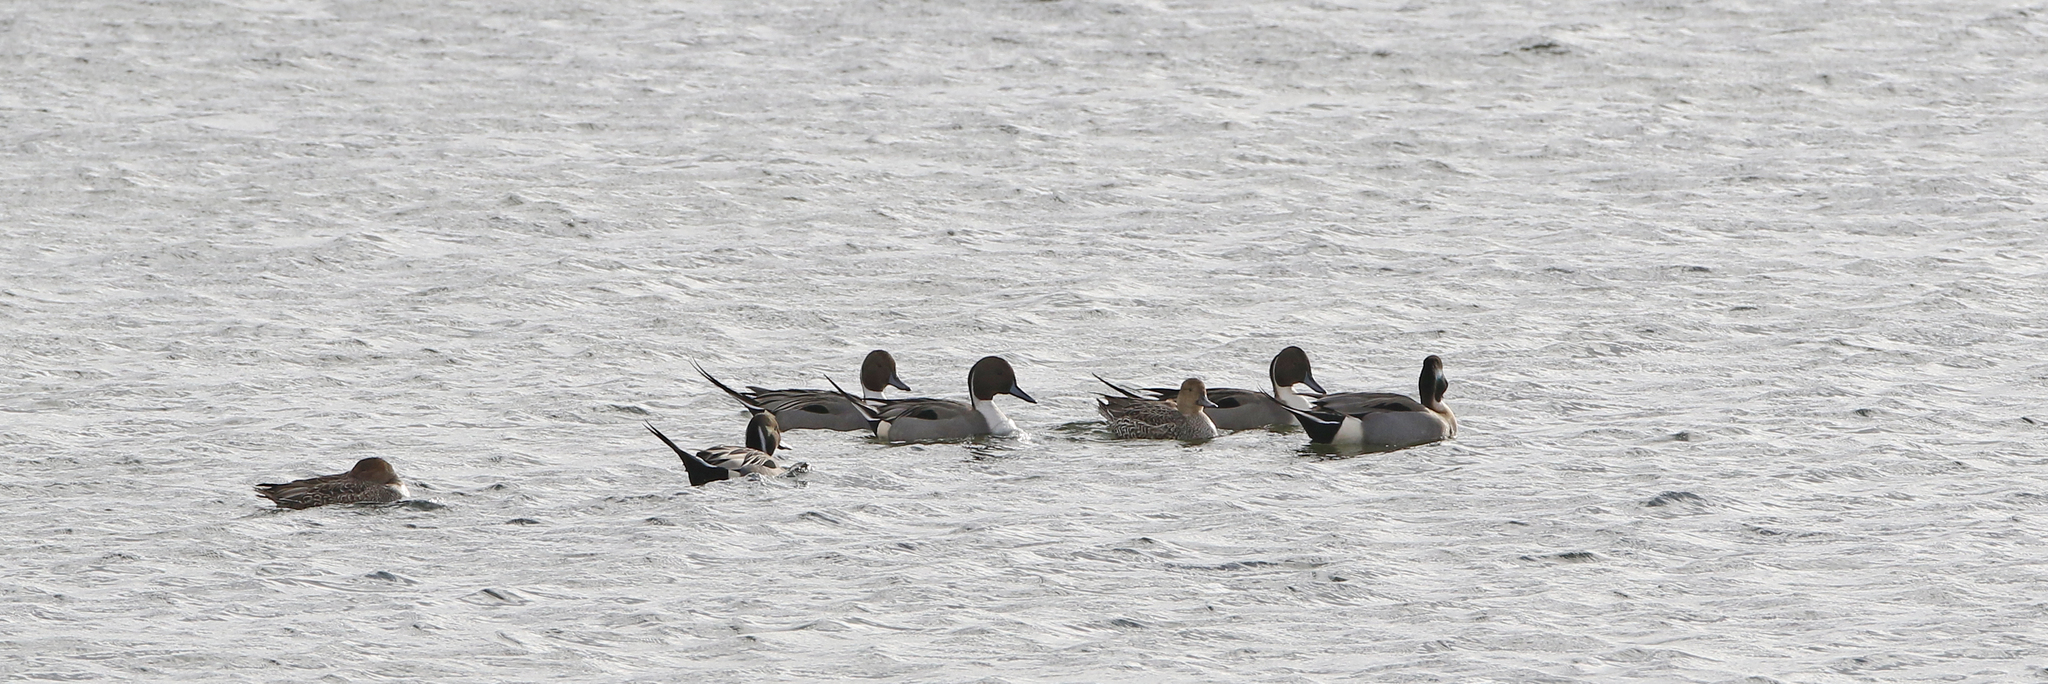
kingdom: Animalia
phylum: Chordata
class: Aves
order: Anseriformes
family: Anatidae
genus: Anas
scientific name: Anas acuta
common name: Northern pintail
